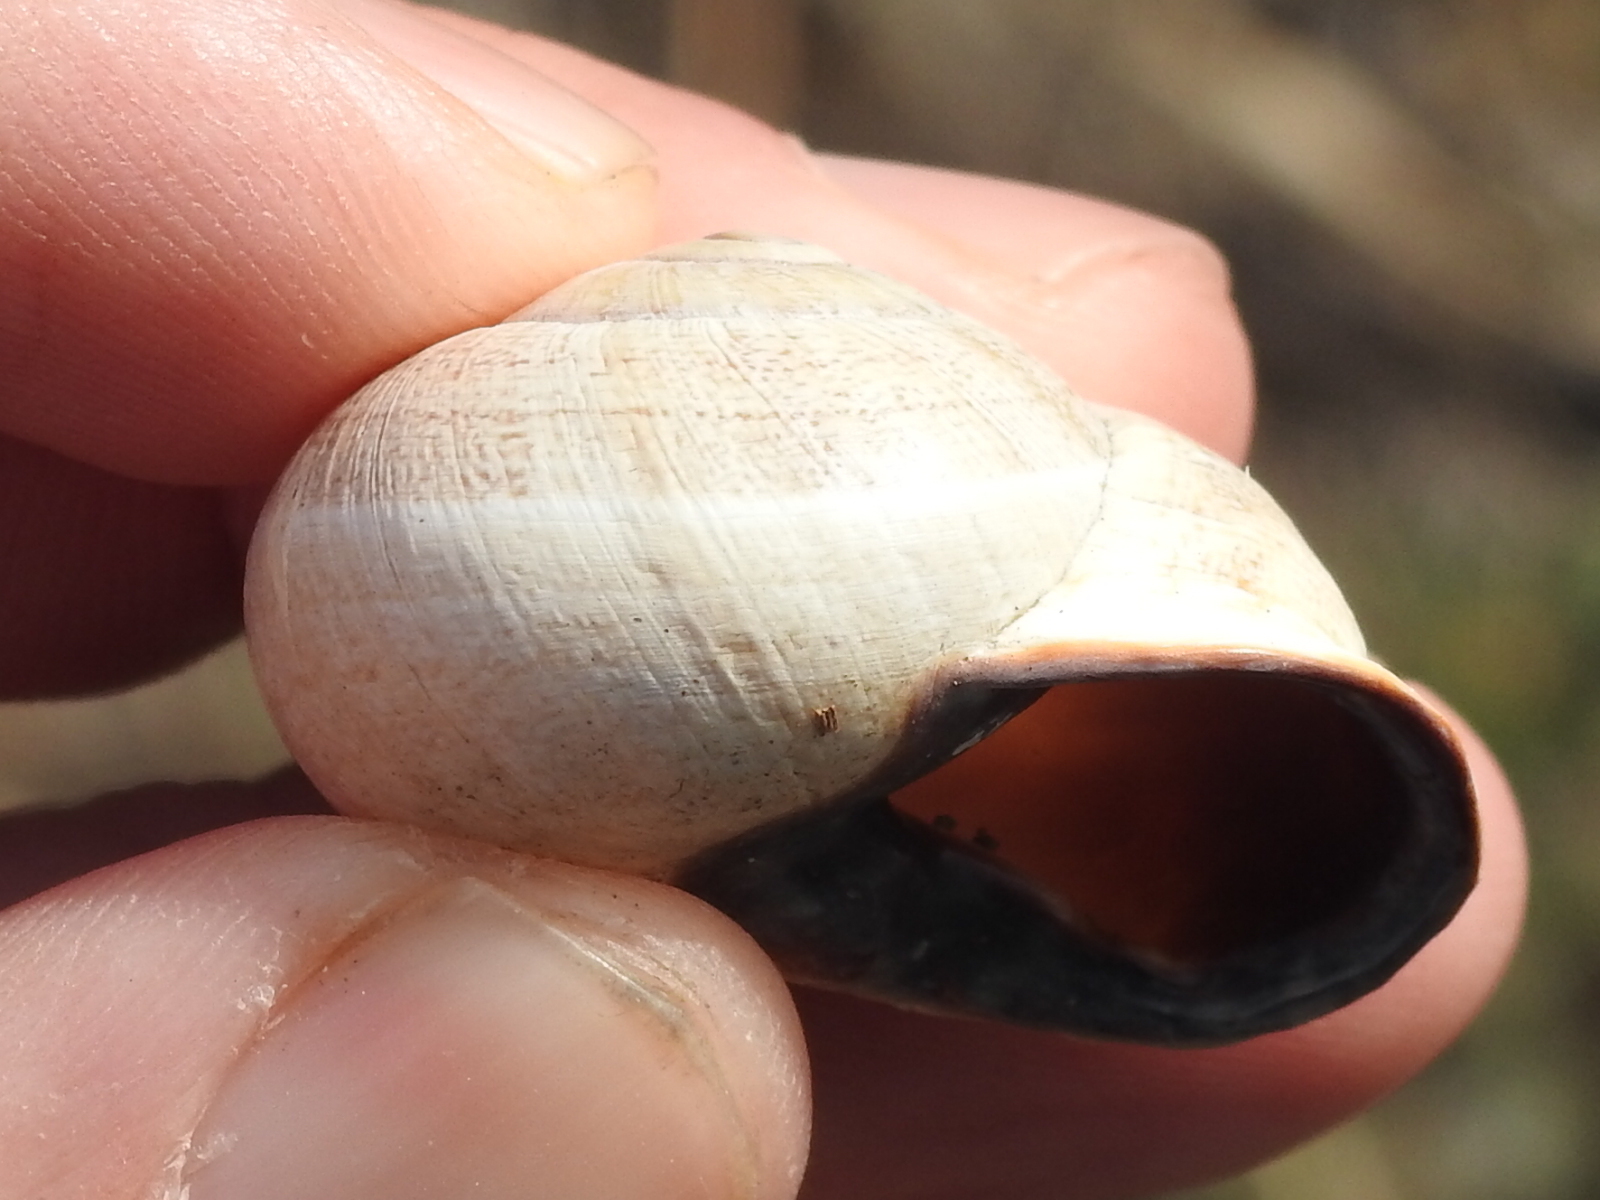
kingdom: Animalia
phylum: Mollusca
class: Gastropoda
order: Stylommatophora
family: Helicidae
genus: Otala
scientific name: Otala lactea
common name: Milk snail
